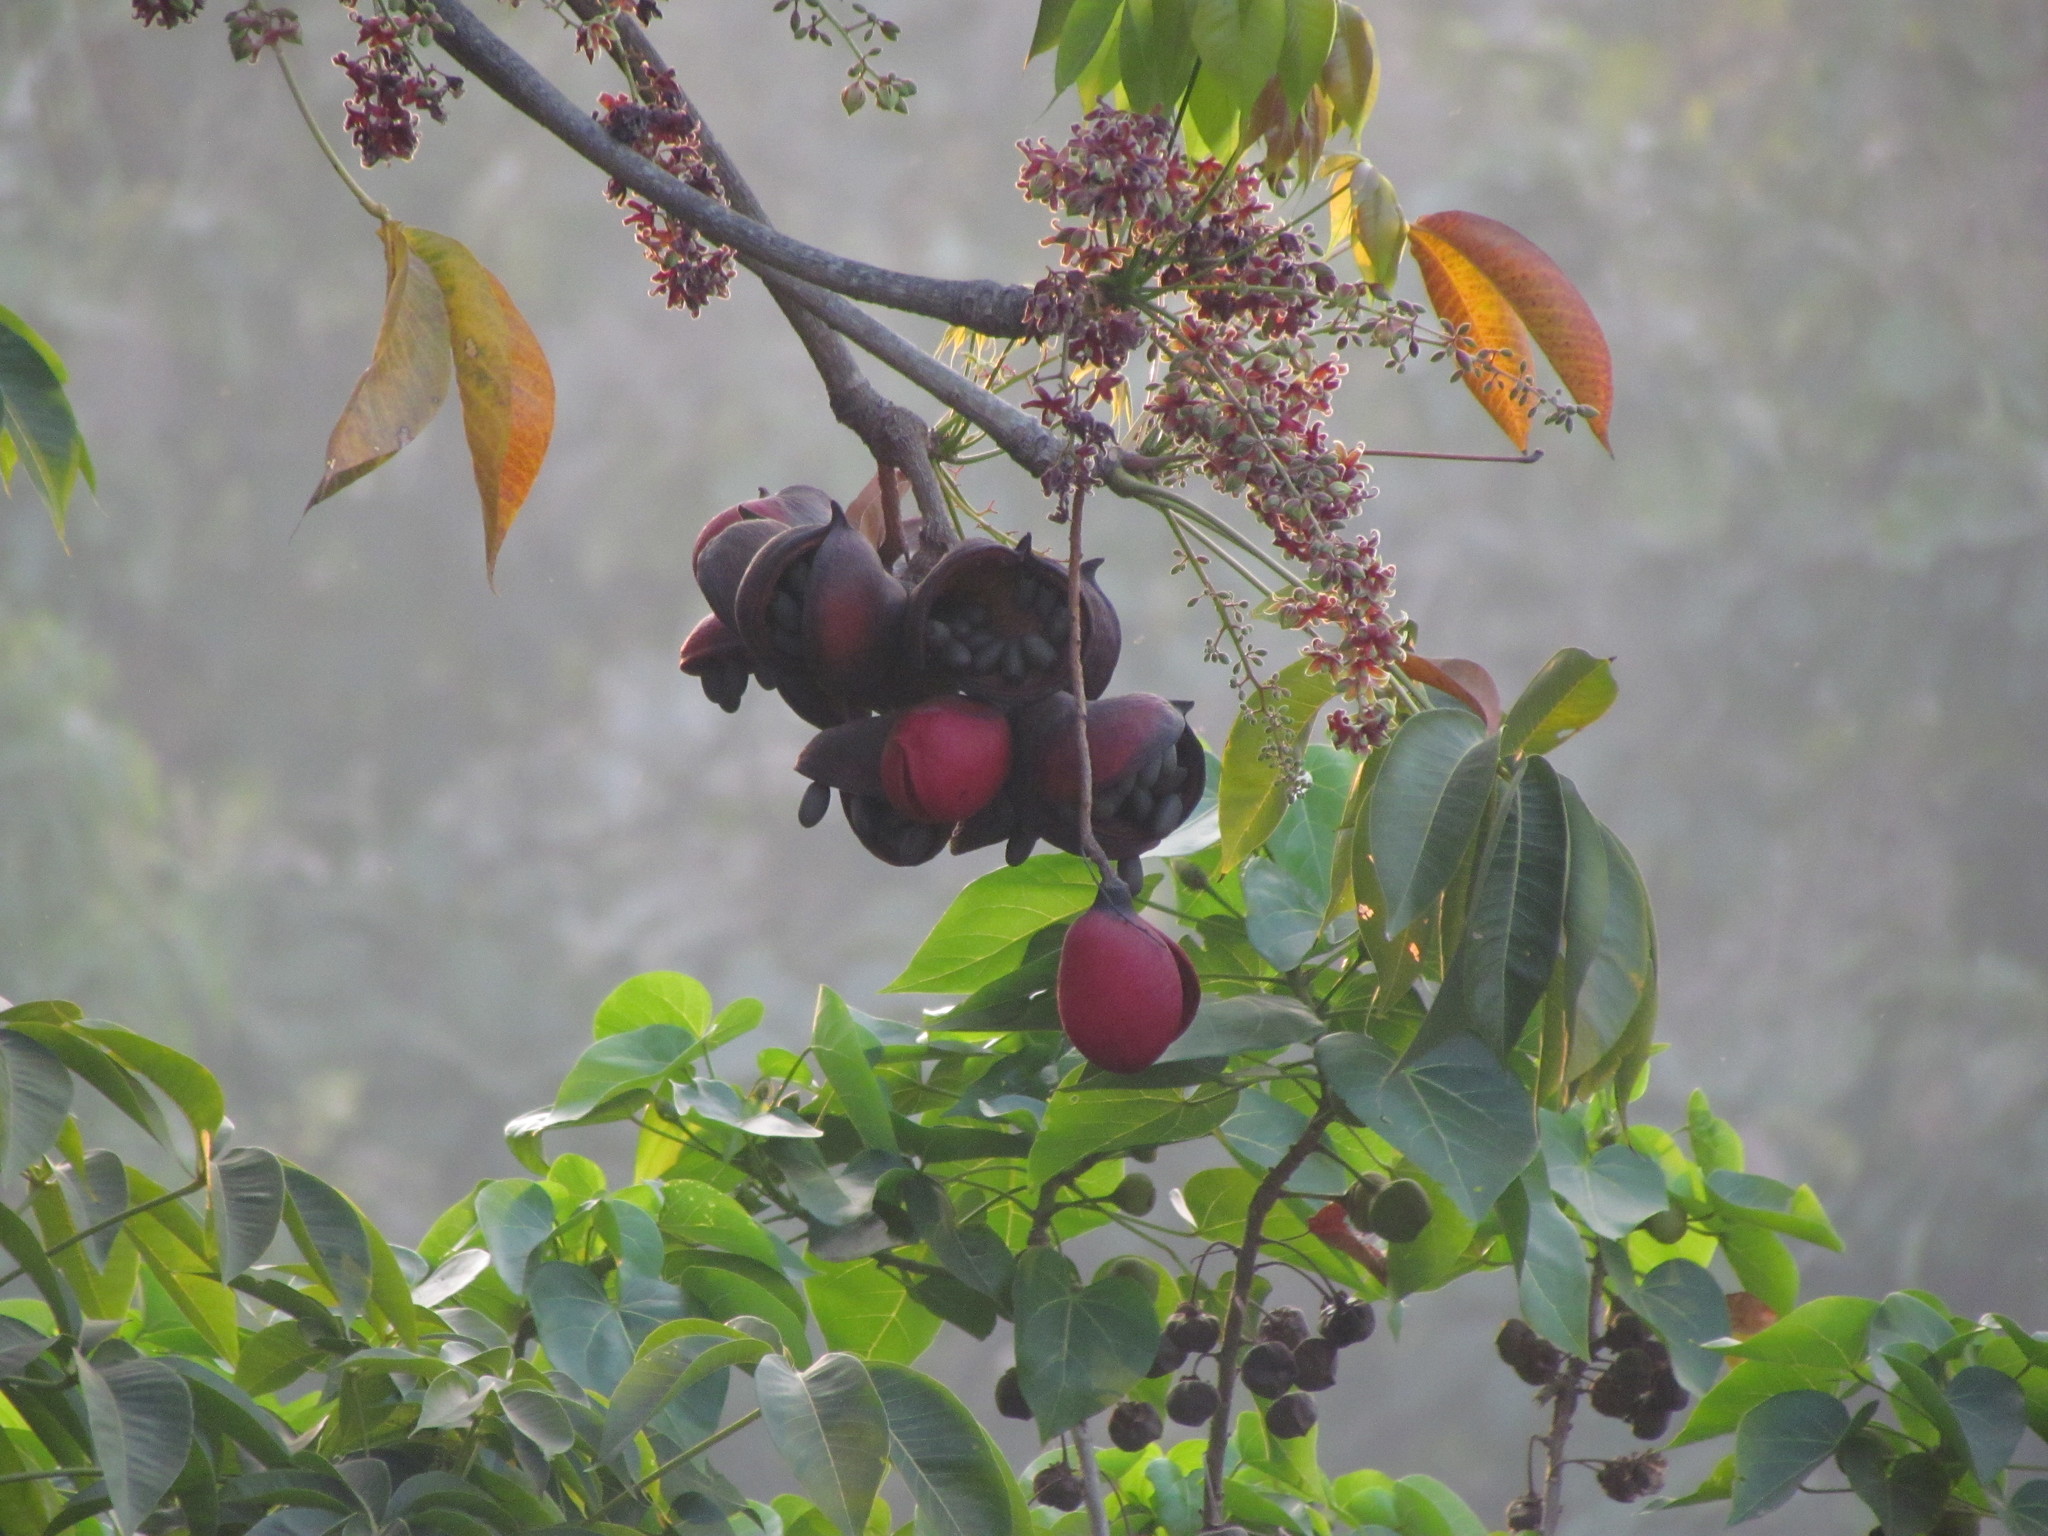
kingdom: Plantae
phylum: Tracheophyta
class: Magnoliopsida
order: Malvales
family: Malvaceae
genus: Sterculia
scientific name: Sterculia foetida
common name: Hazel sterculia
